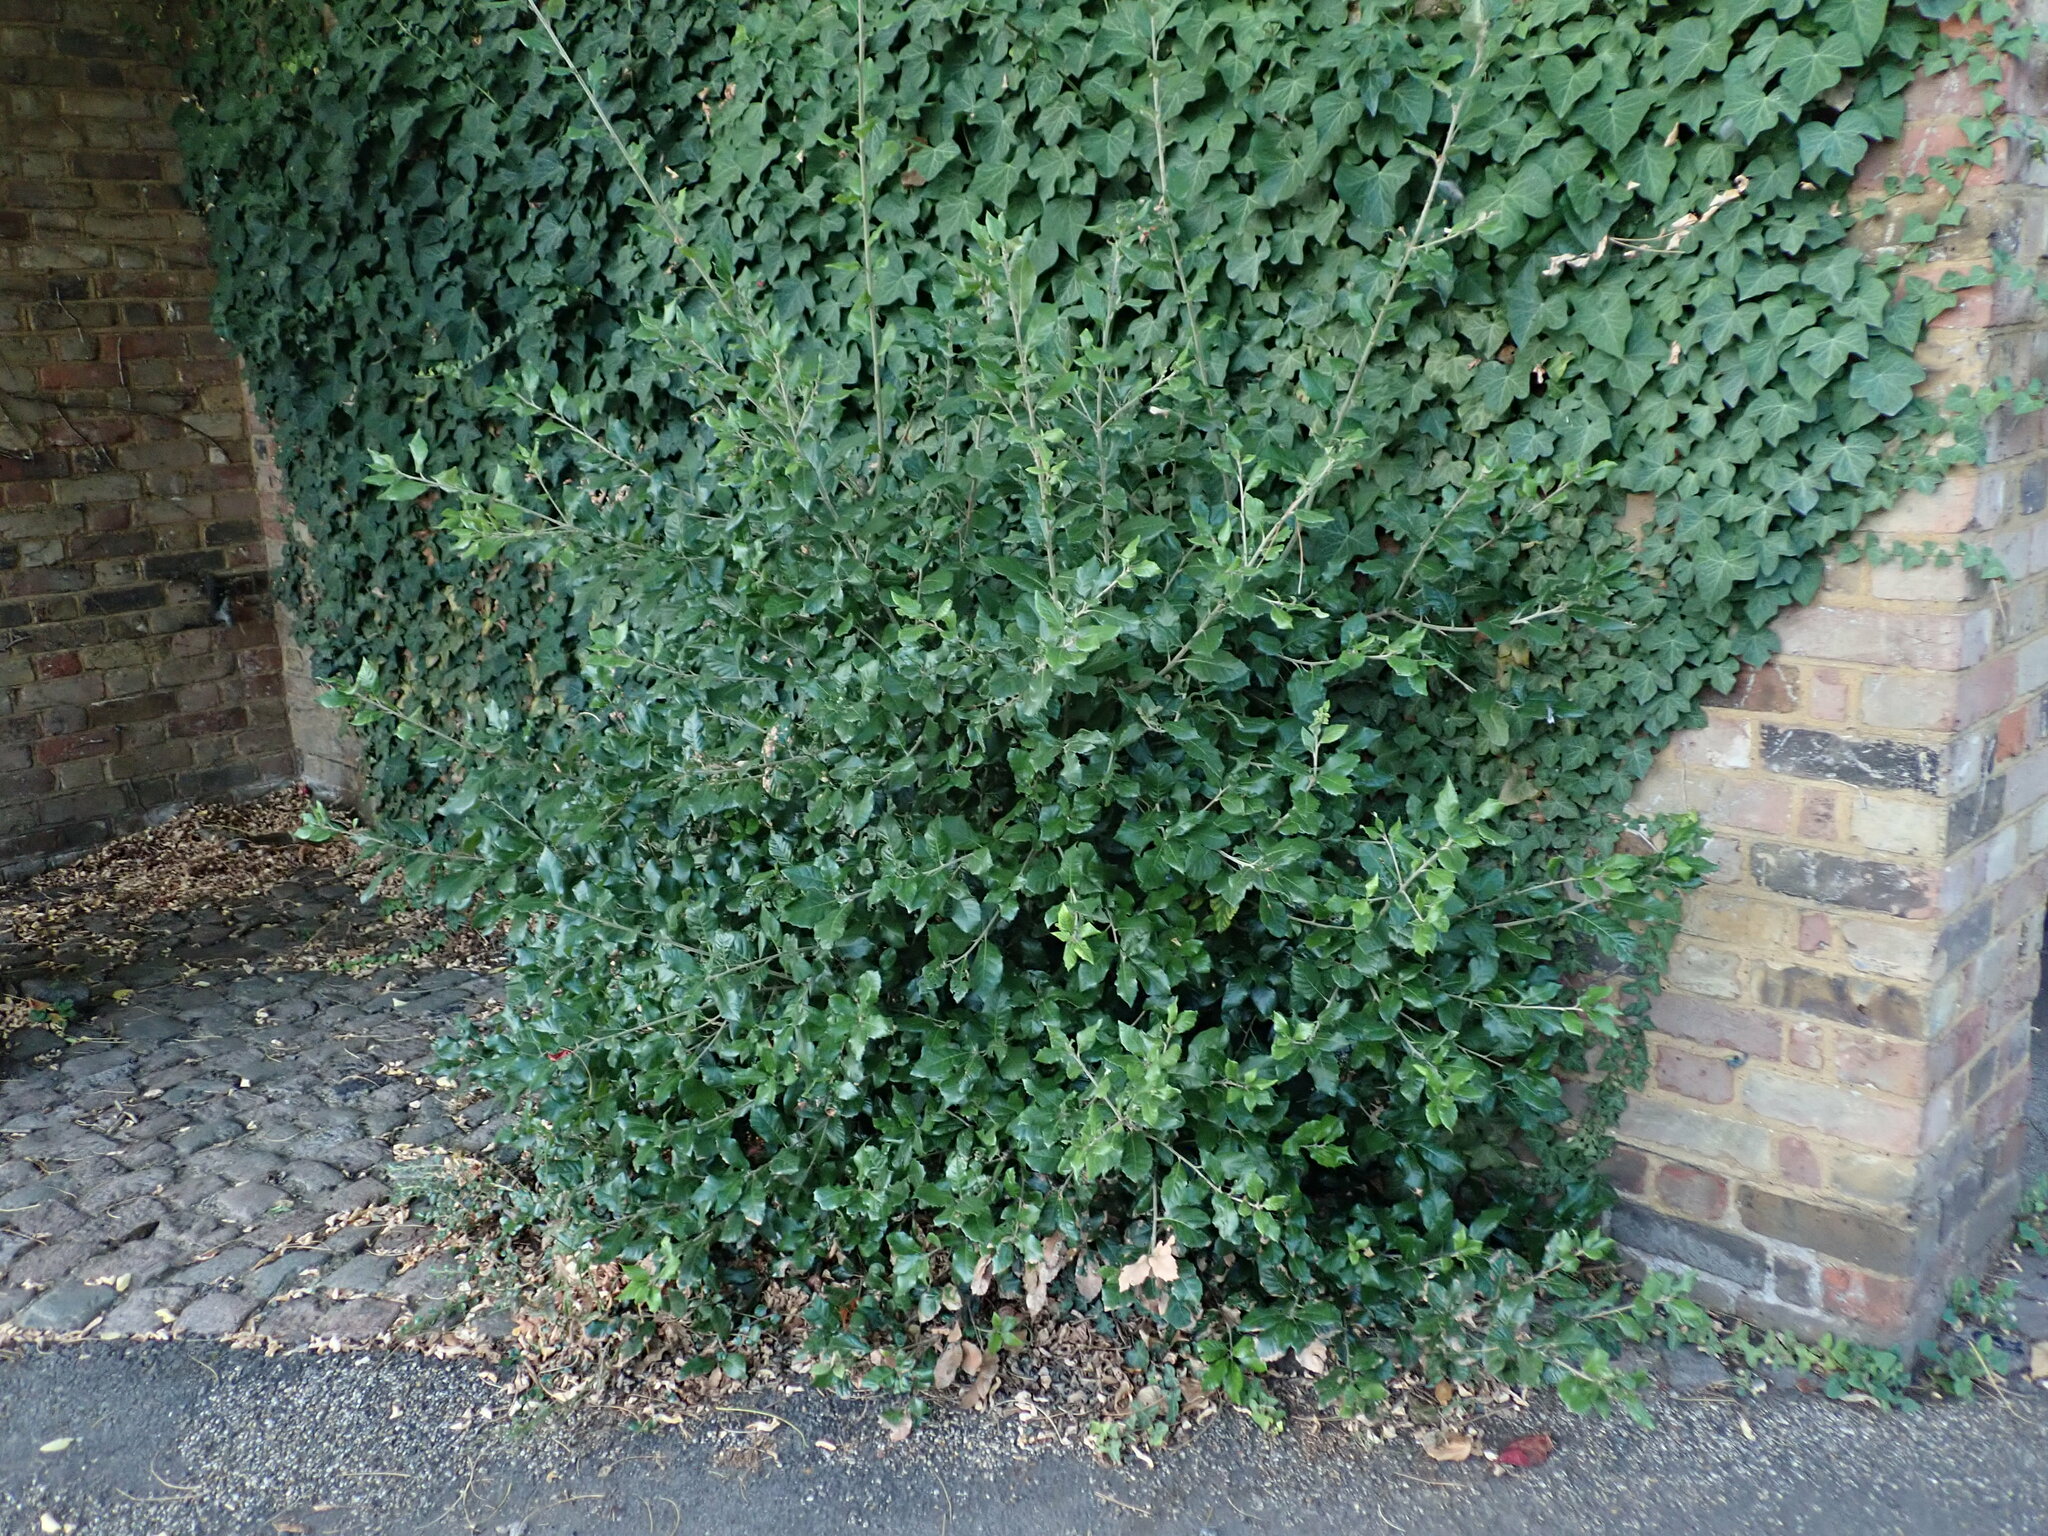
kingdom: Plantae
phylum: Tracheophyta
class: Magnoliopsida
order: Fagales
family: Fagaceae
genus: Quercus
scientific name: Quercus ilex
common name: Evergreen oak
